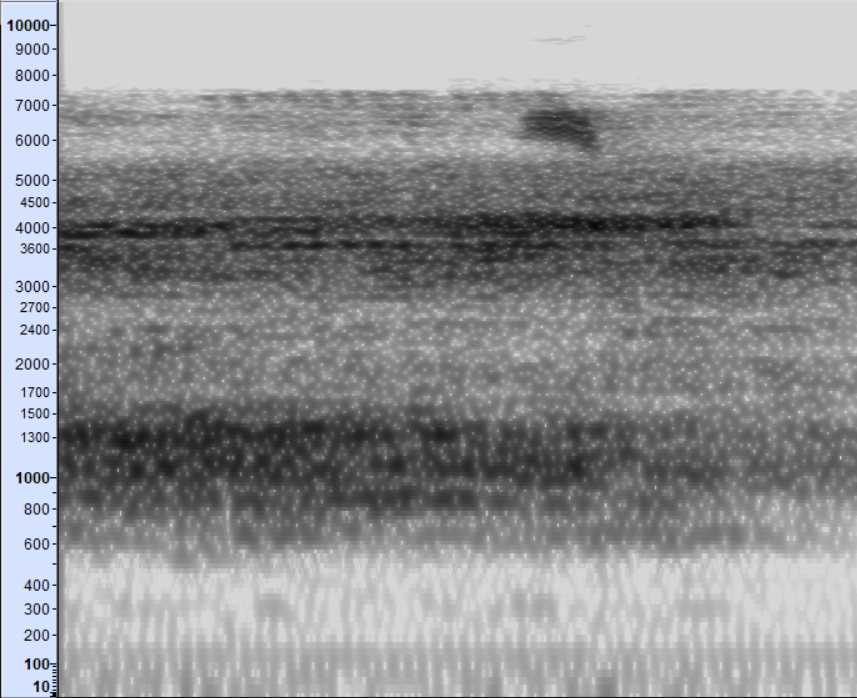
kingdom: Animalia
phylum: Chordata
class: Aves
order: Passeriformes
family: Parulidae
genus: Setophaga
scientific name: Setophaga pensylvanica
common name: Chestnut-sided warbler
